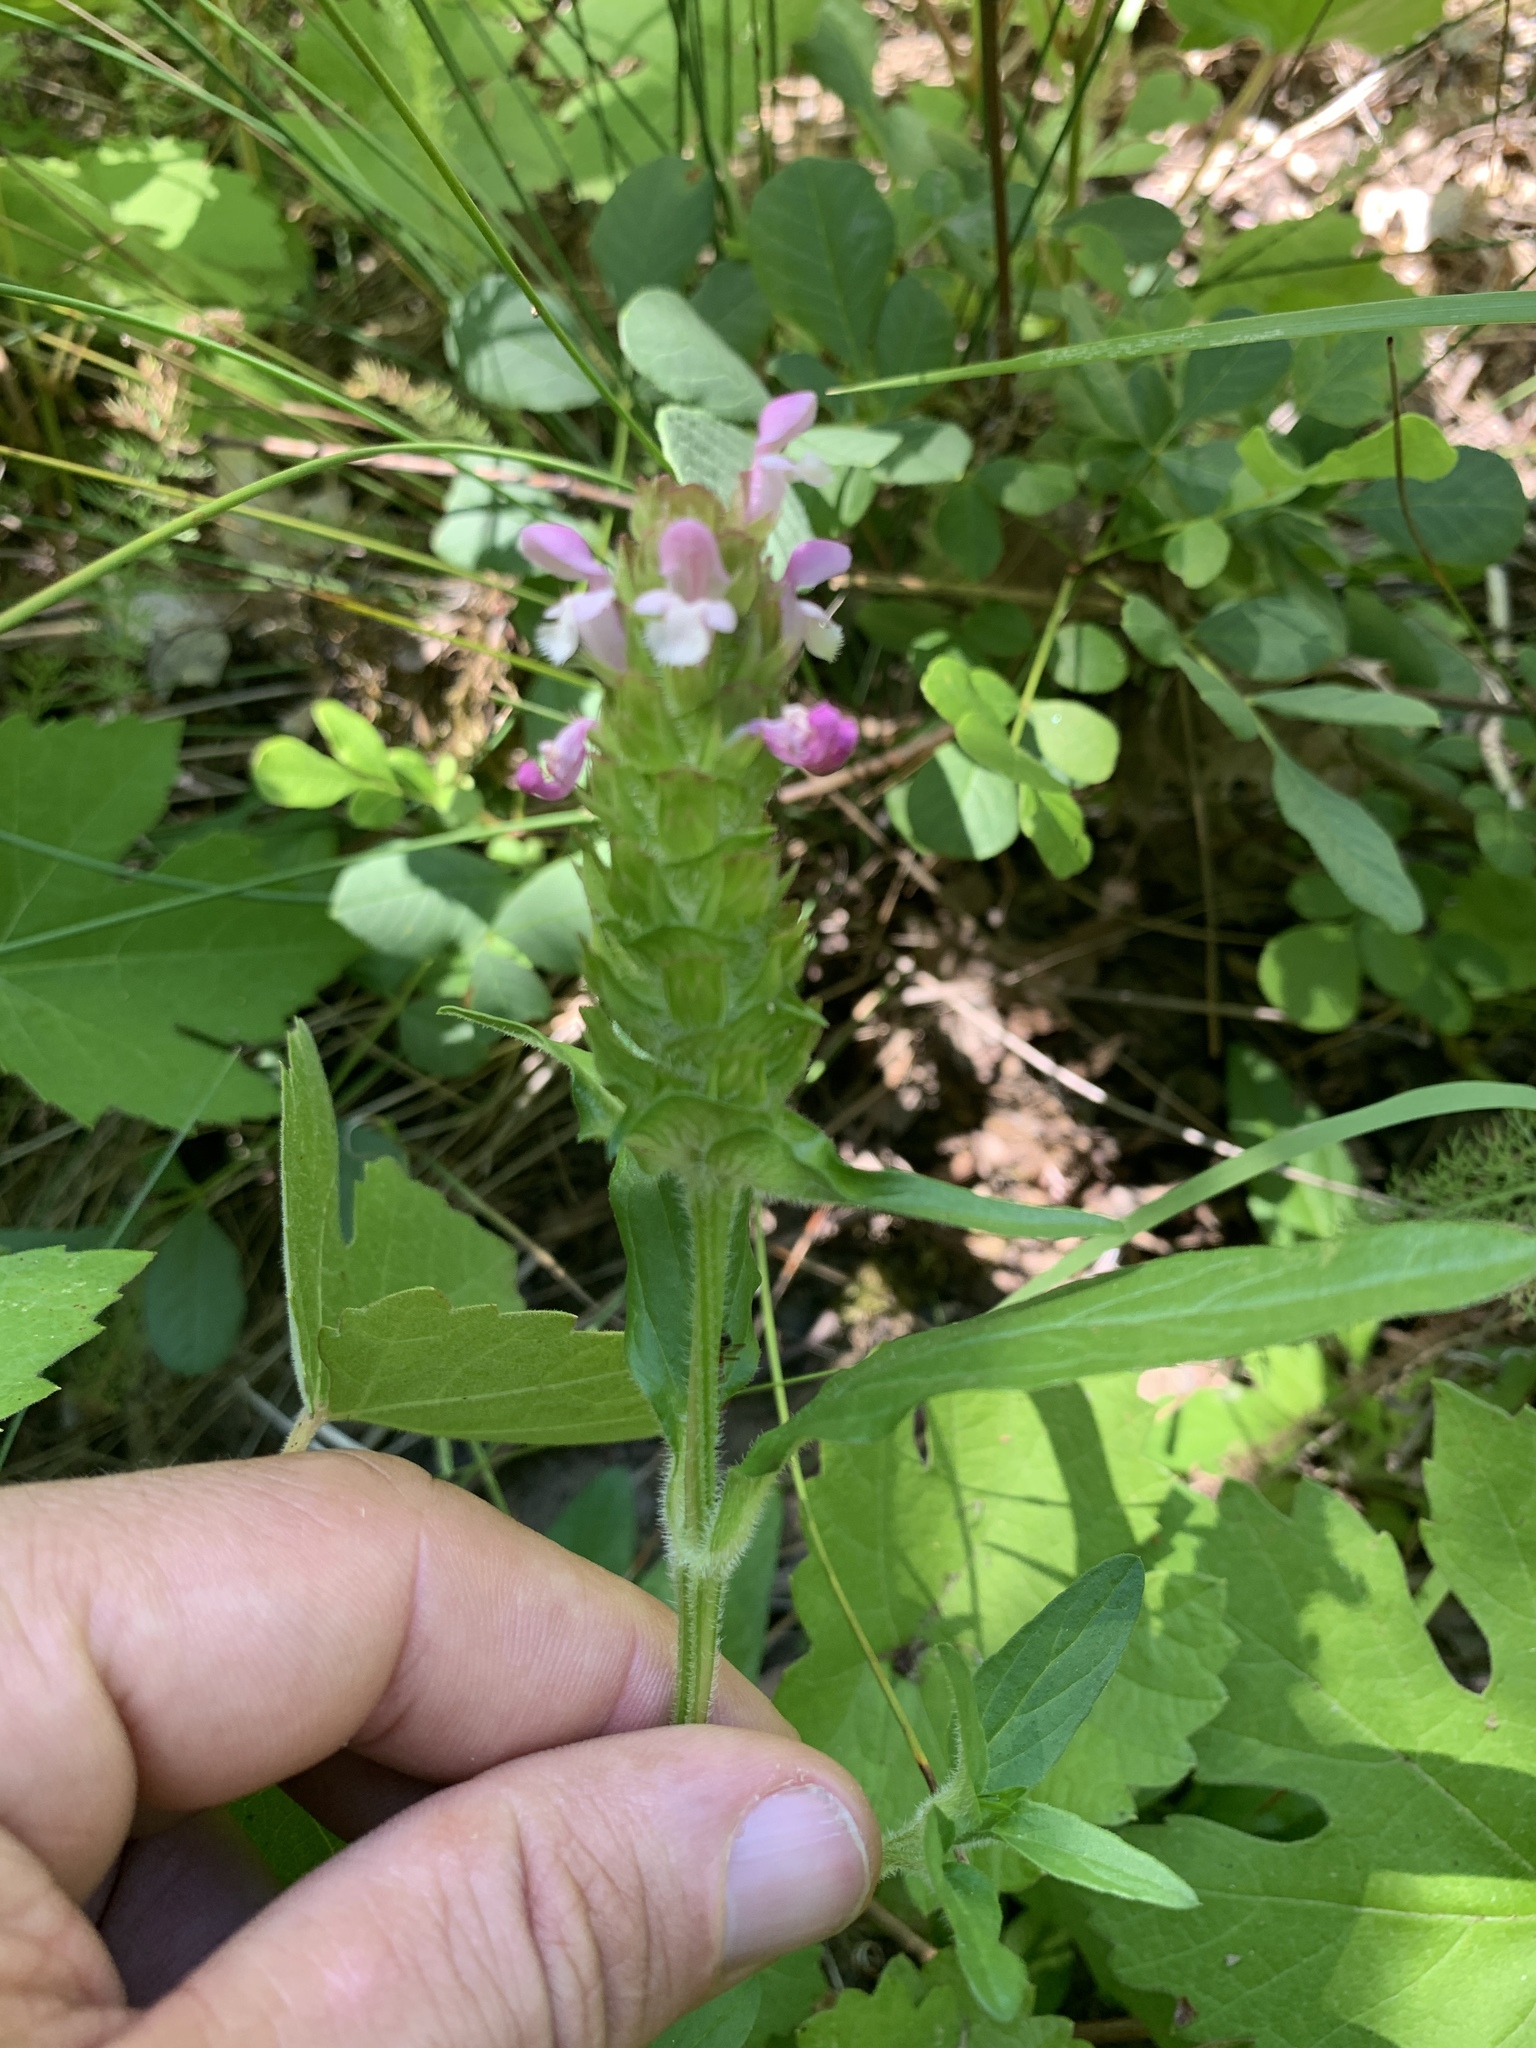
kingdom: Plantae
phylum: Tracheophyta
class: Magnoliopsida
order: Lamiales
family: Lamiaceae
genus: Prunella
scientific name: Prunella vulgaris
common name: Heal-all
